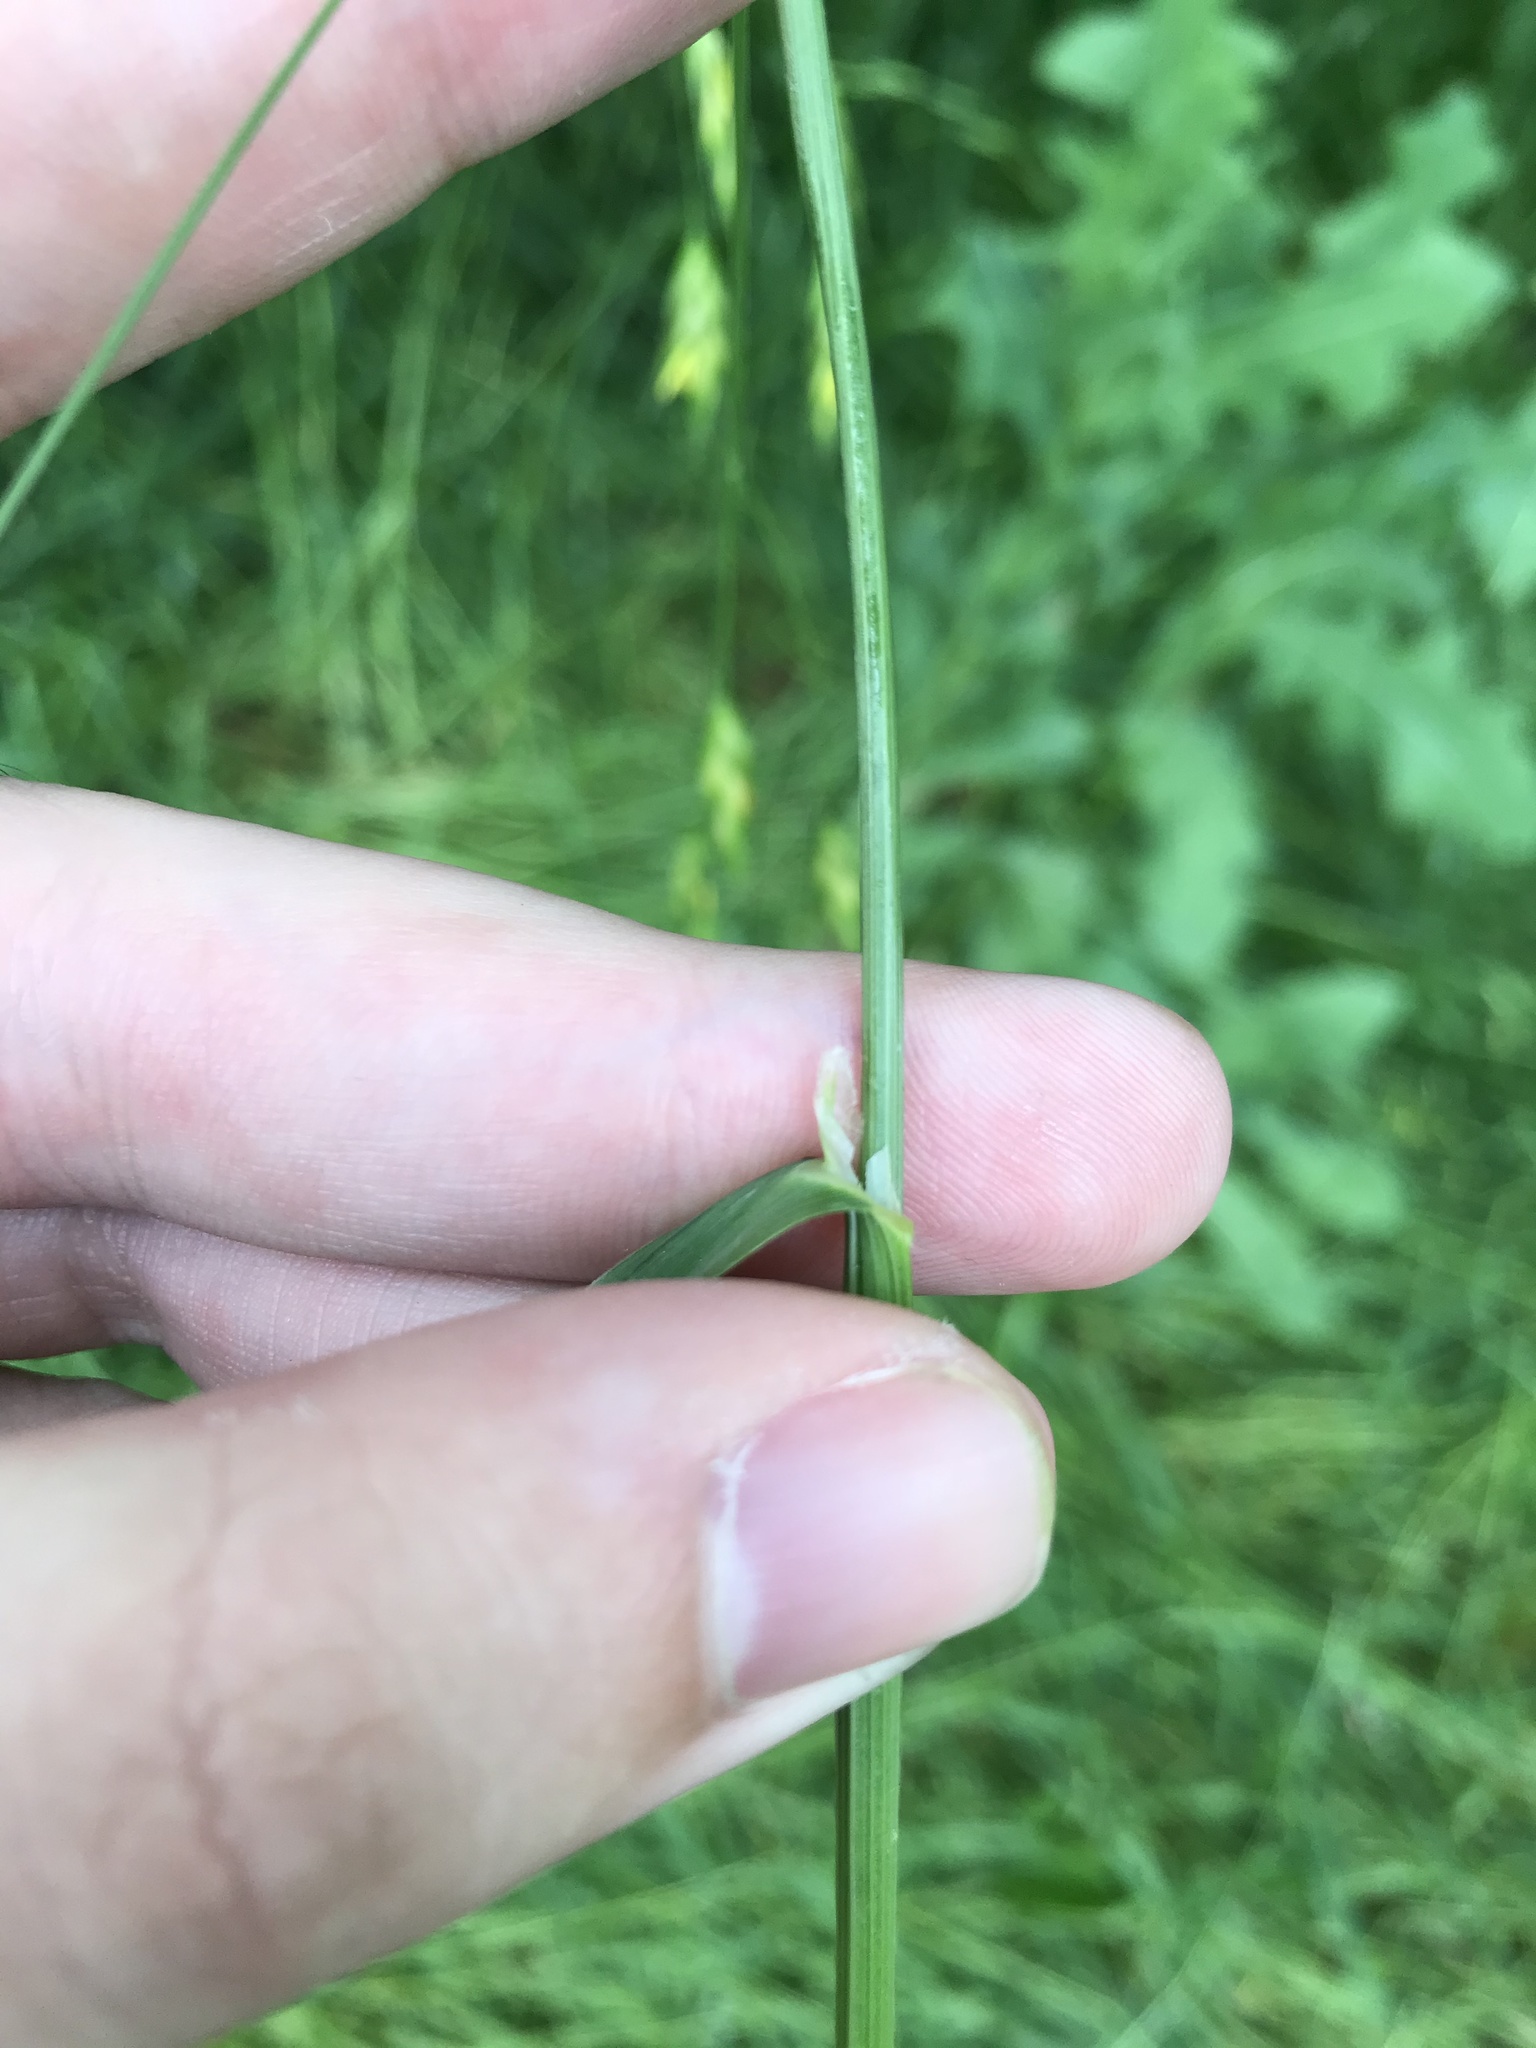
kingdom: Plantae
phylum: Tracheophyta
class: Liliopsida
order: Poales
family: Poaceae
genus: Bromus
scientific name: Bromus catharticus
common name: Rescuegrass
